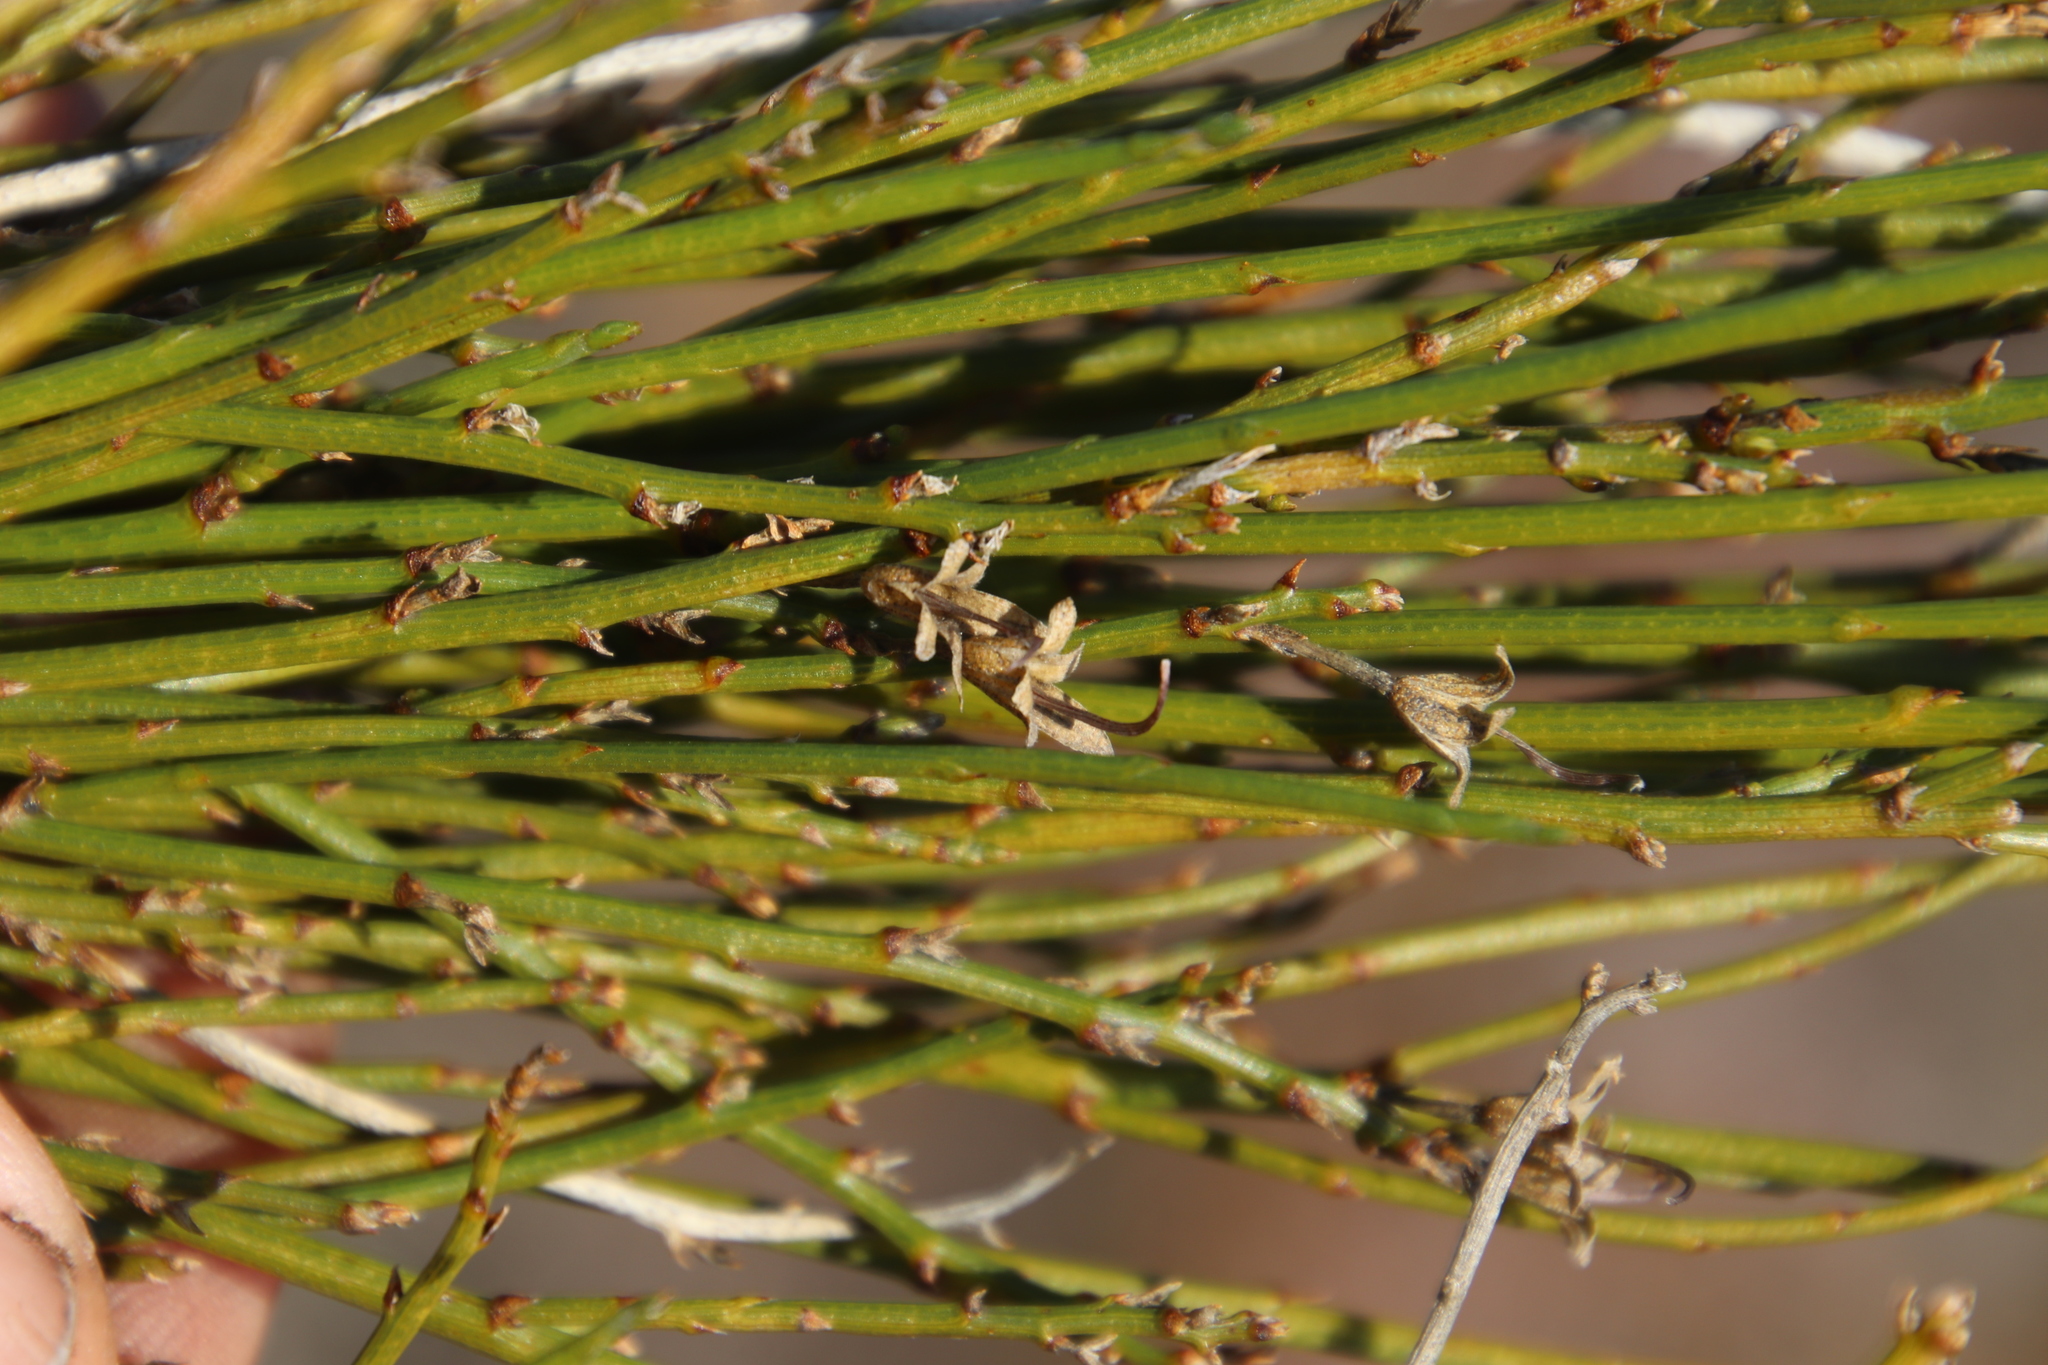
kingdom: Plantae
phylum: Tracheophyta
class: Magnoliopsida
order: Fabales
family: Fabaceae
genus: Psoralea
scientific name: Psoralea usitata
